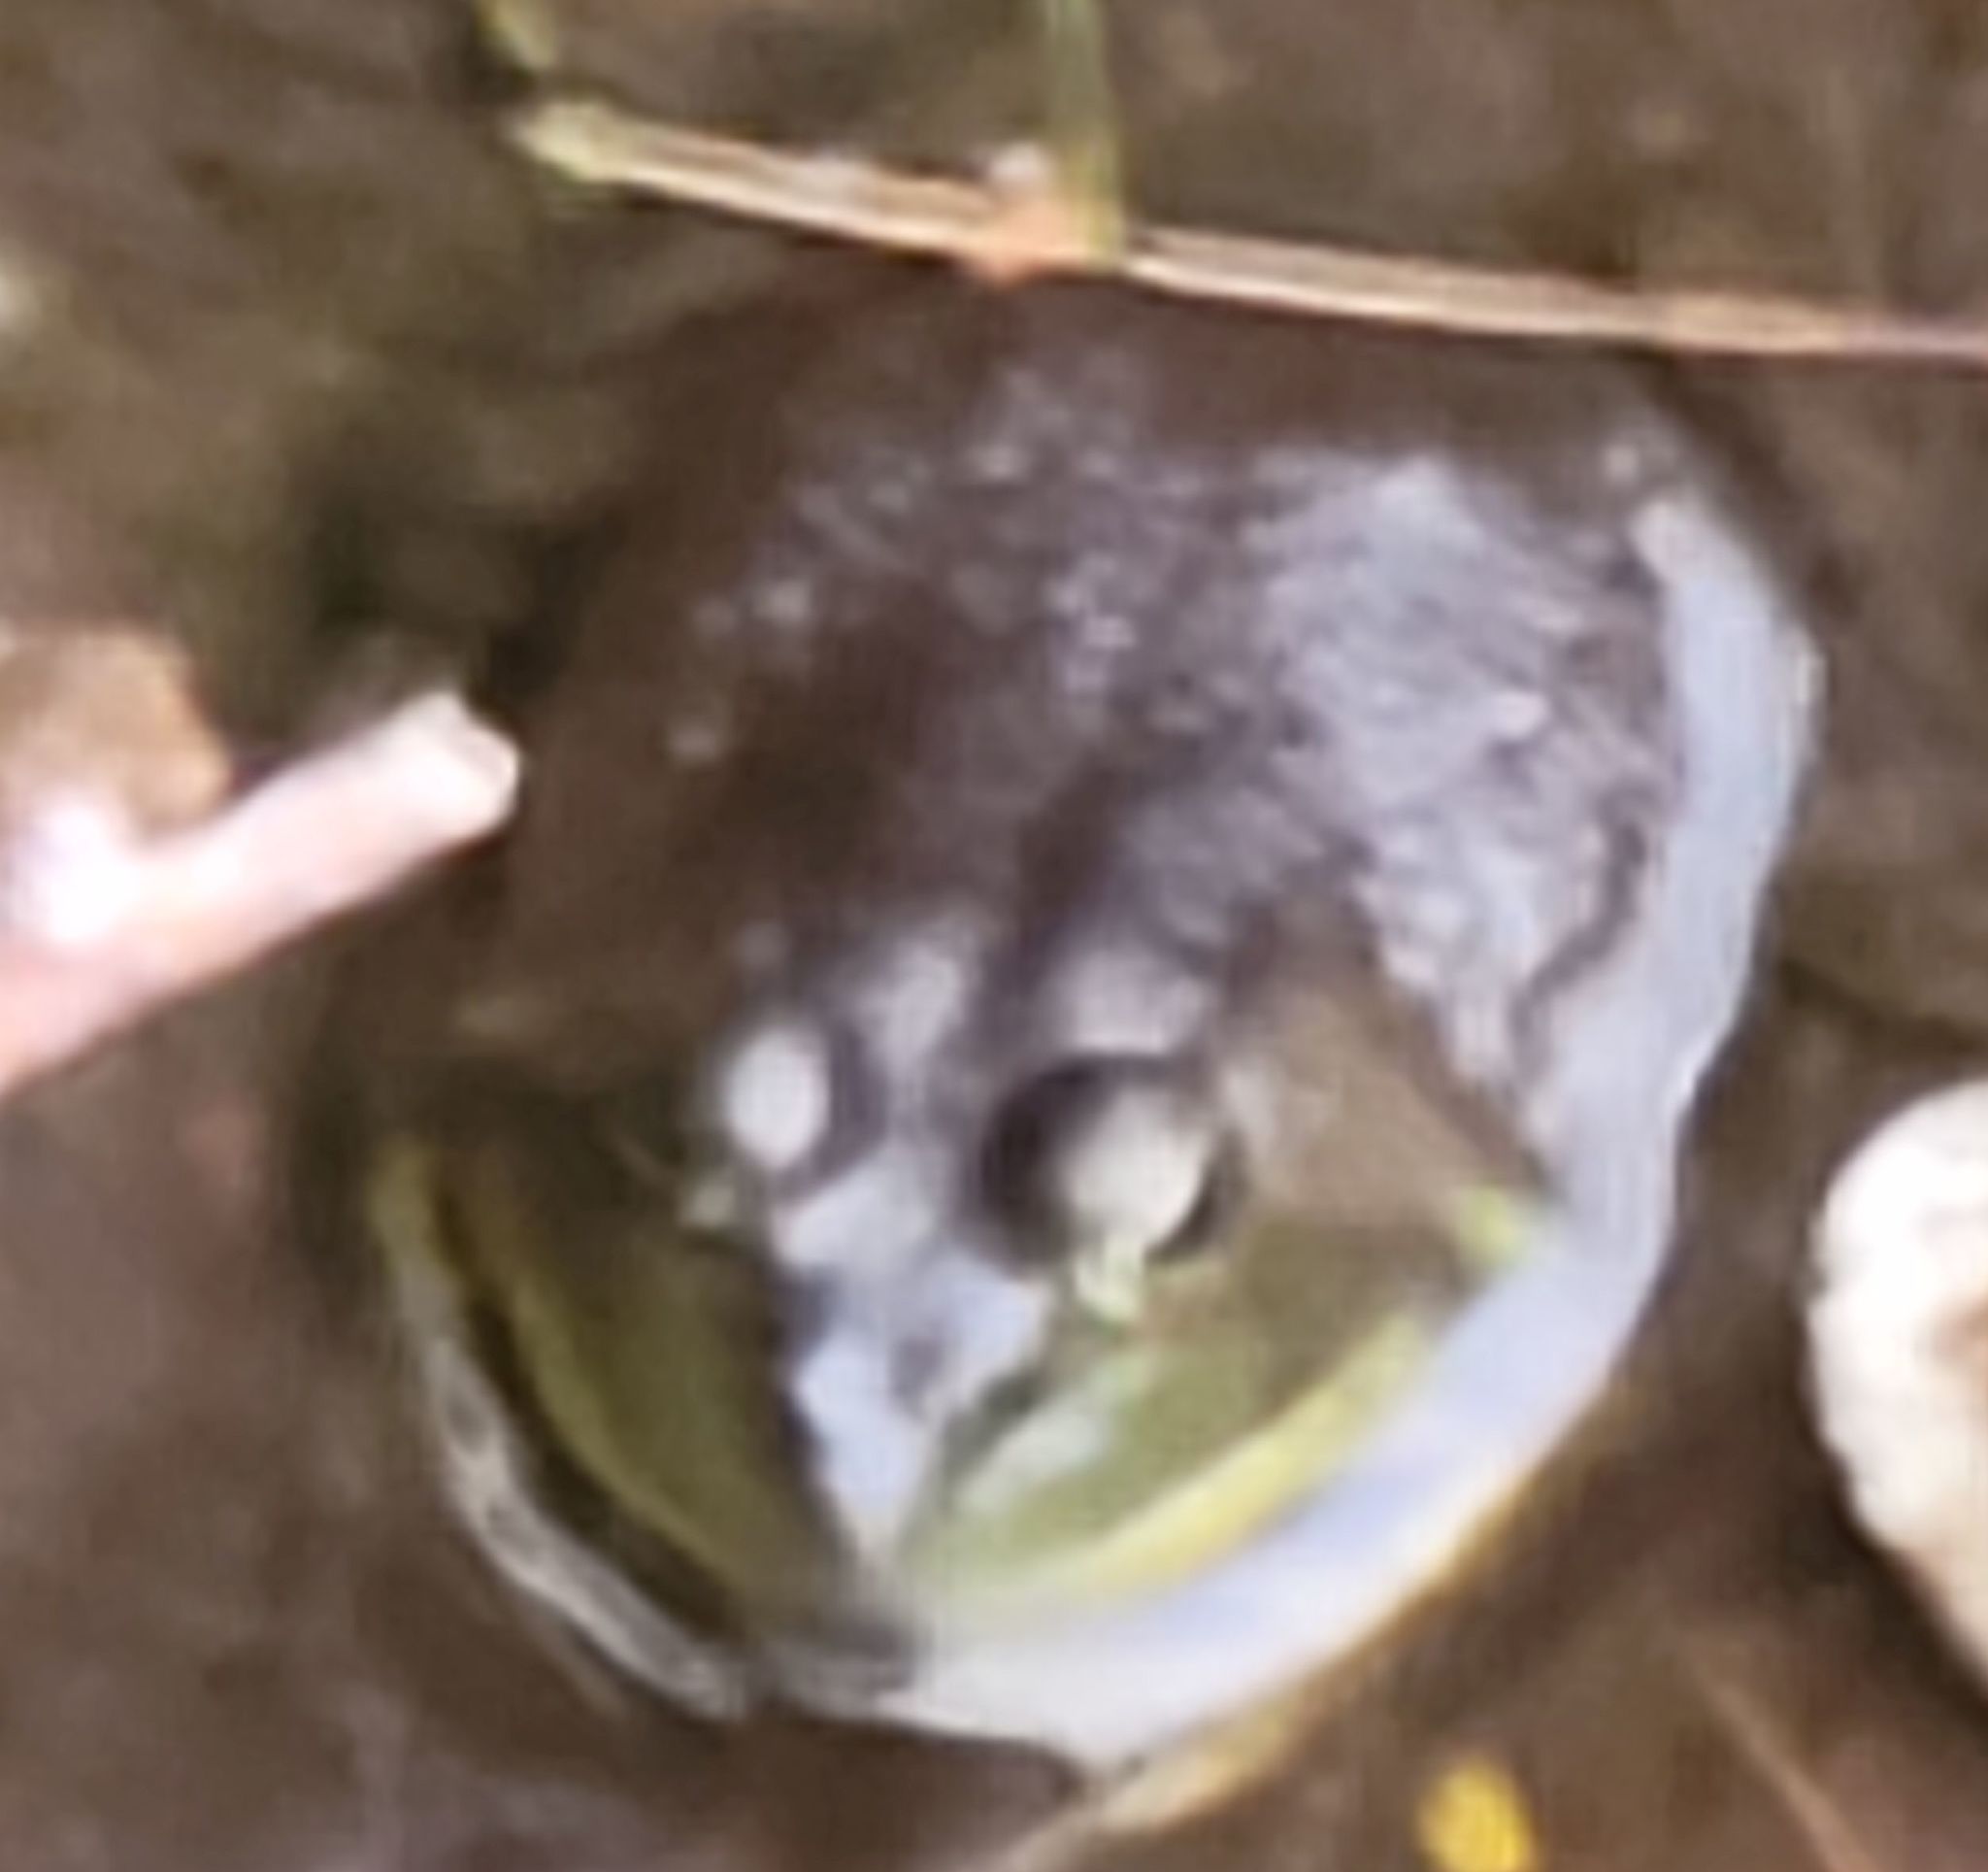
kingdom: Animalia
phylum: Chordata
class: Amphibia
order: Anura
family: Ranidae
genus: Lithobates
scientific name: Lithobates catesbeianus
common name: American bullfrog
